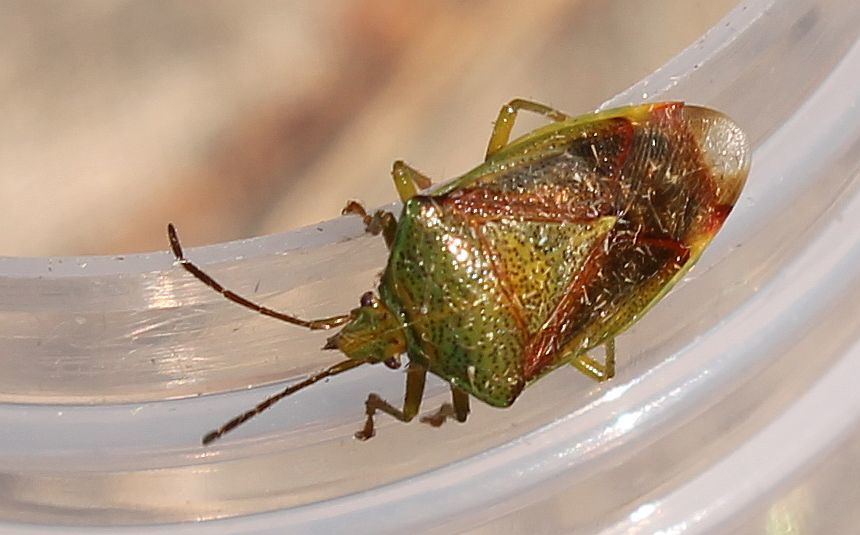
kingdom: Animalia
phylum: Arthropoda
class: Insecta
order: Hemiptera
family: Acanthosomatidae
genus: Elasmostethus
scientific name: Elasmostethus interstinctus
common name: Birch shieldbug
